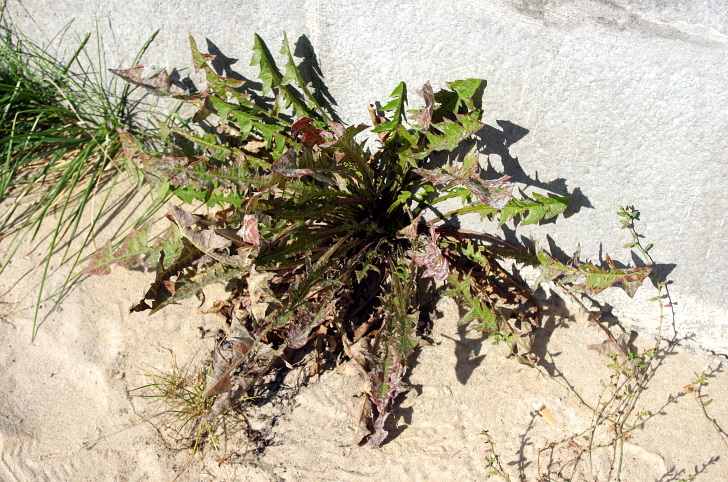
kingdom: Plantae
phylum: Tracheophyta
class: Magnoliopsida
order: Asterales
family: Asteraceae
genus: Taraxacum
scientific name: Taraxacum officinale
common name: Common dandelion
